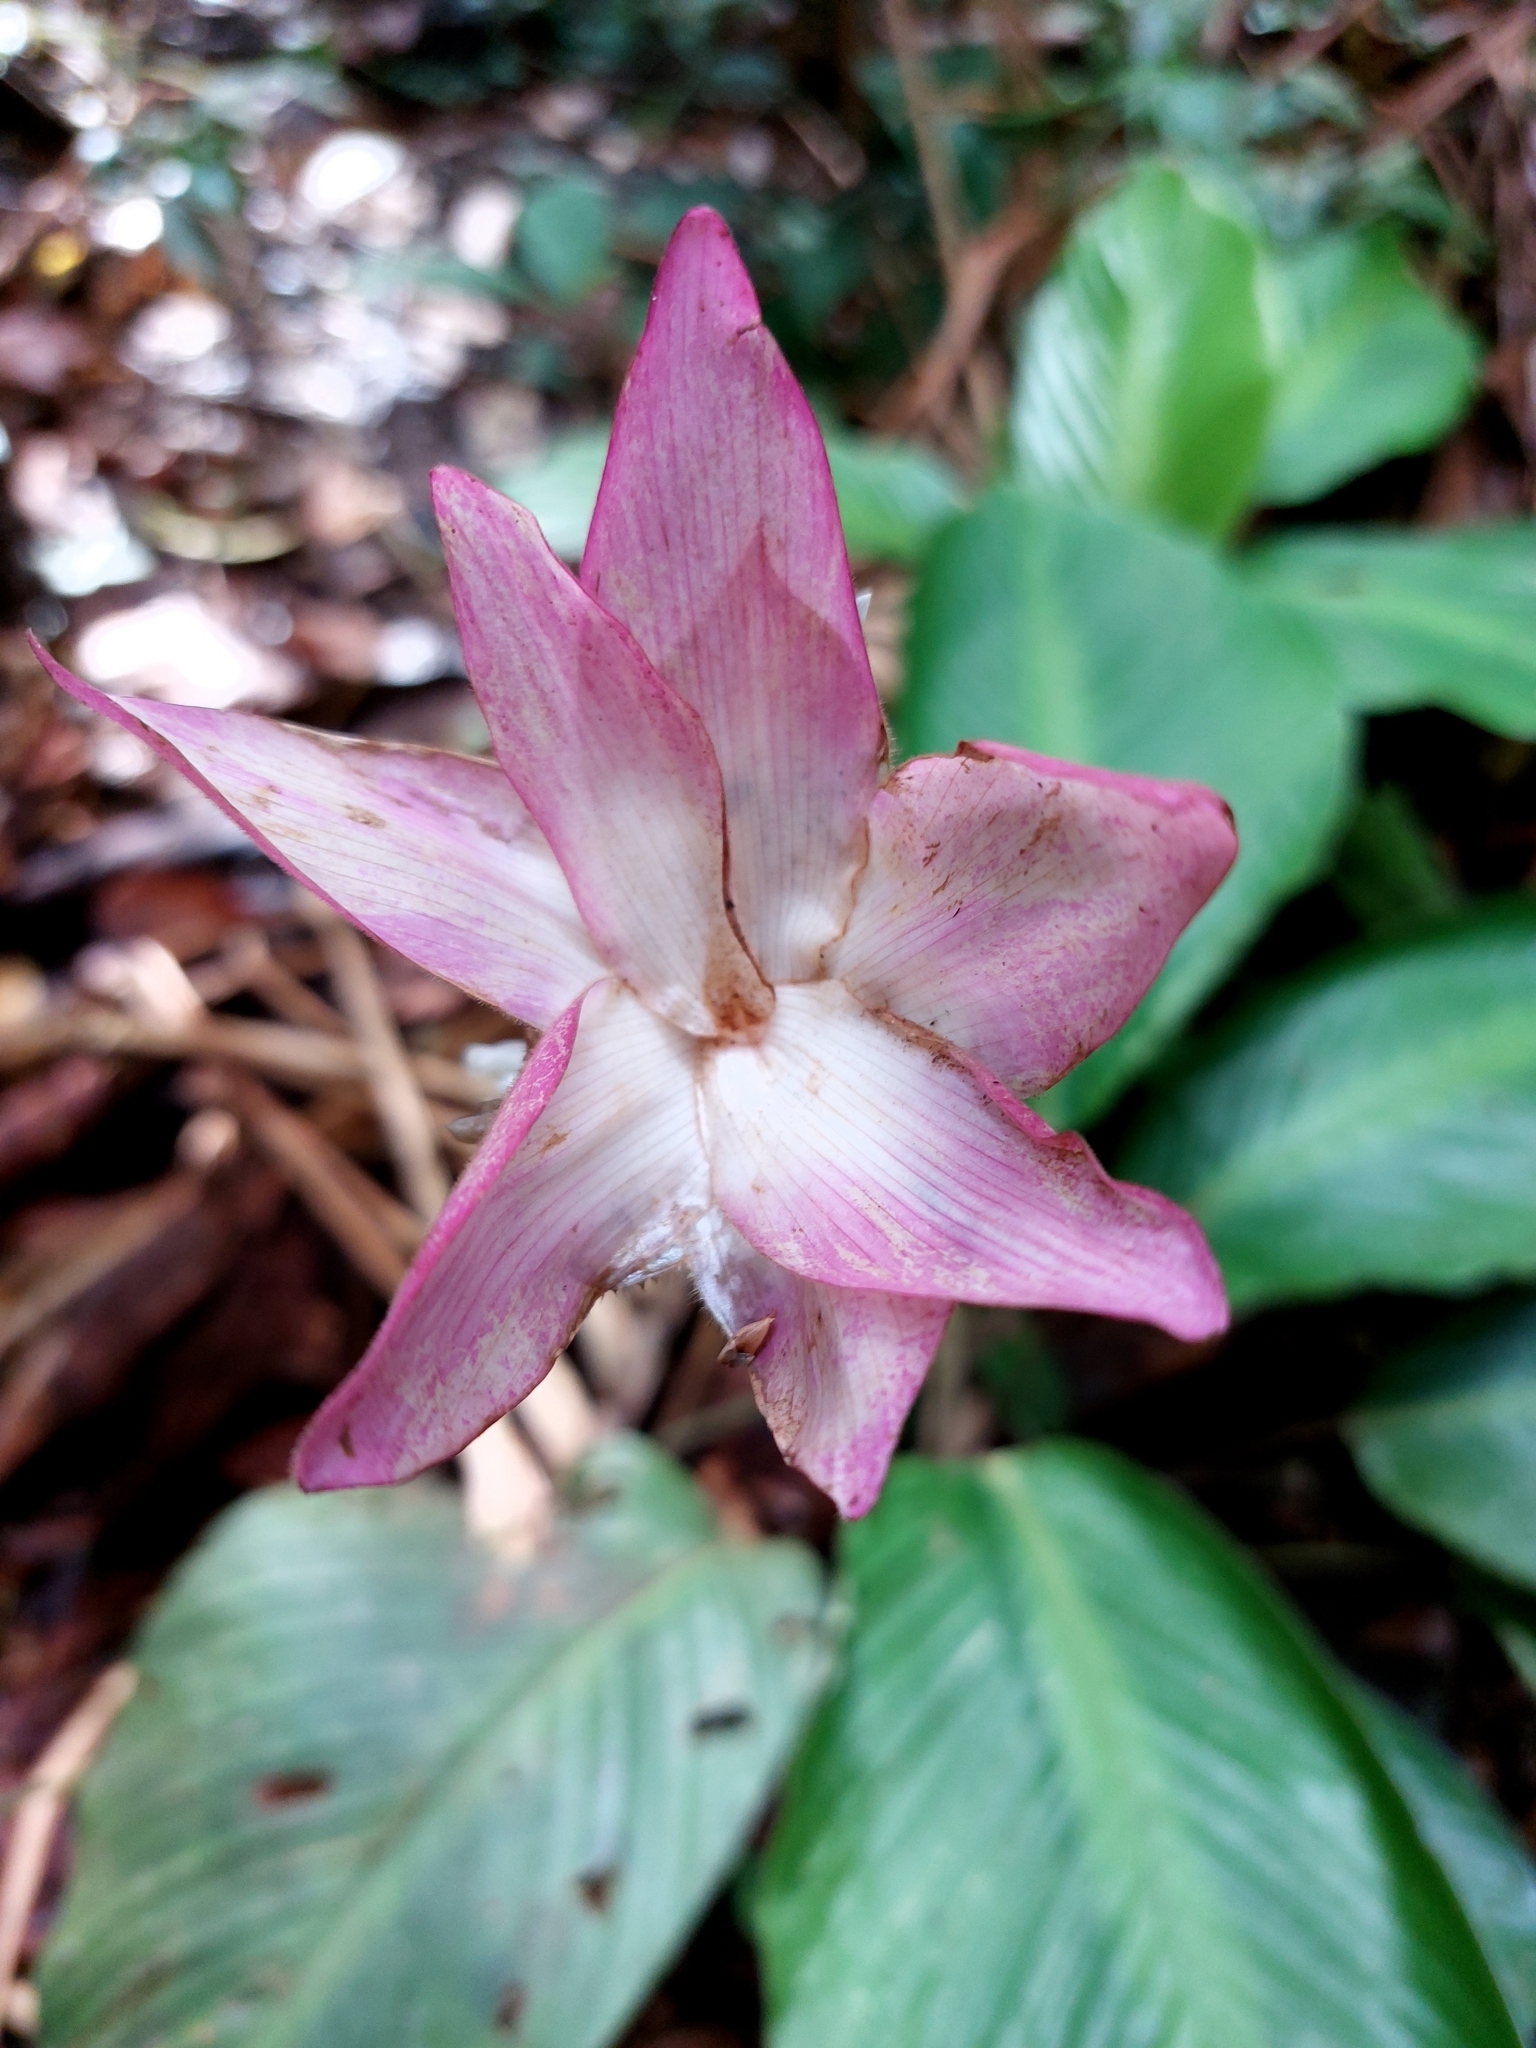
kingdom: Plantae
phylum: Tracheophyta
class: Liliopsida
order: Zingiberales
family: Marantaceae
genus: Goeppertia
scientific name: Goeppertia loeseneri
